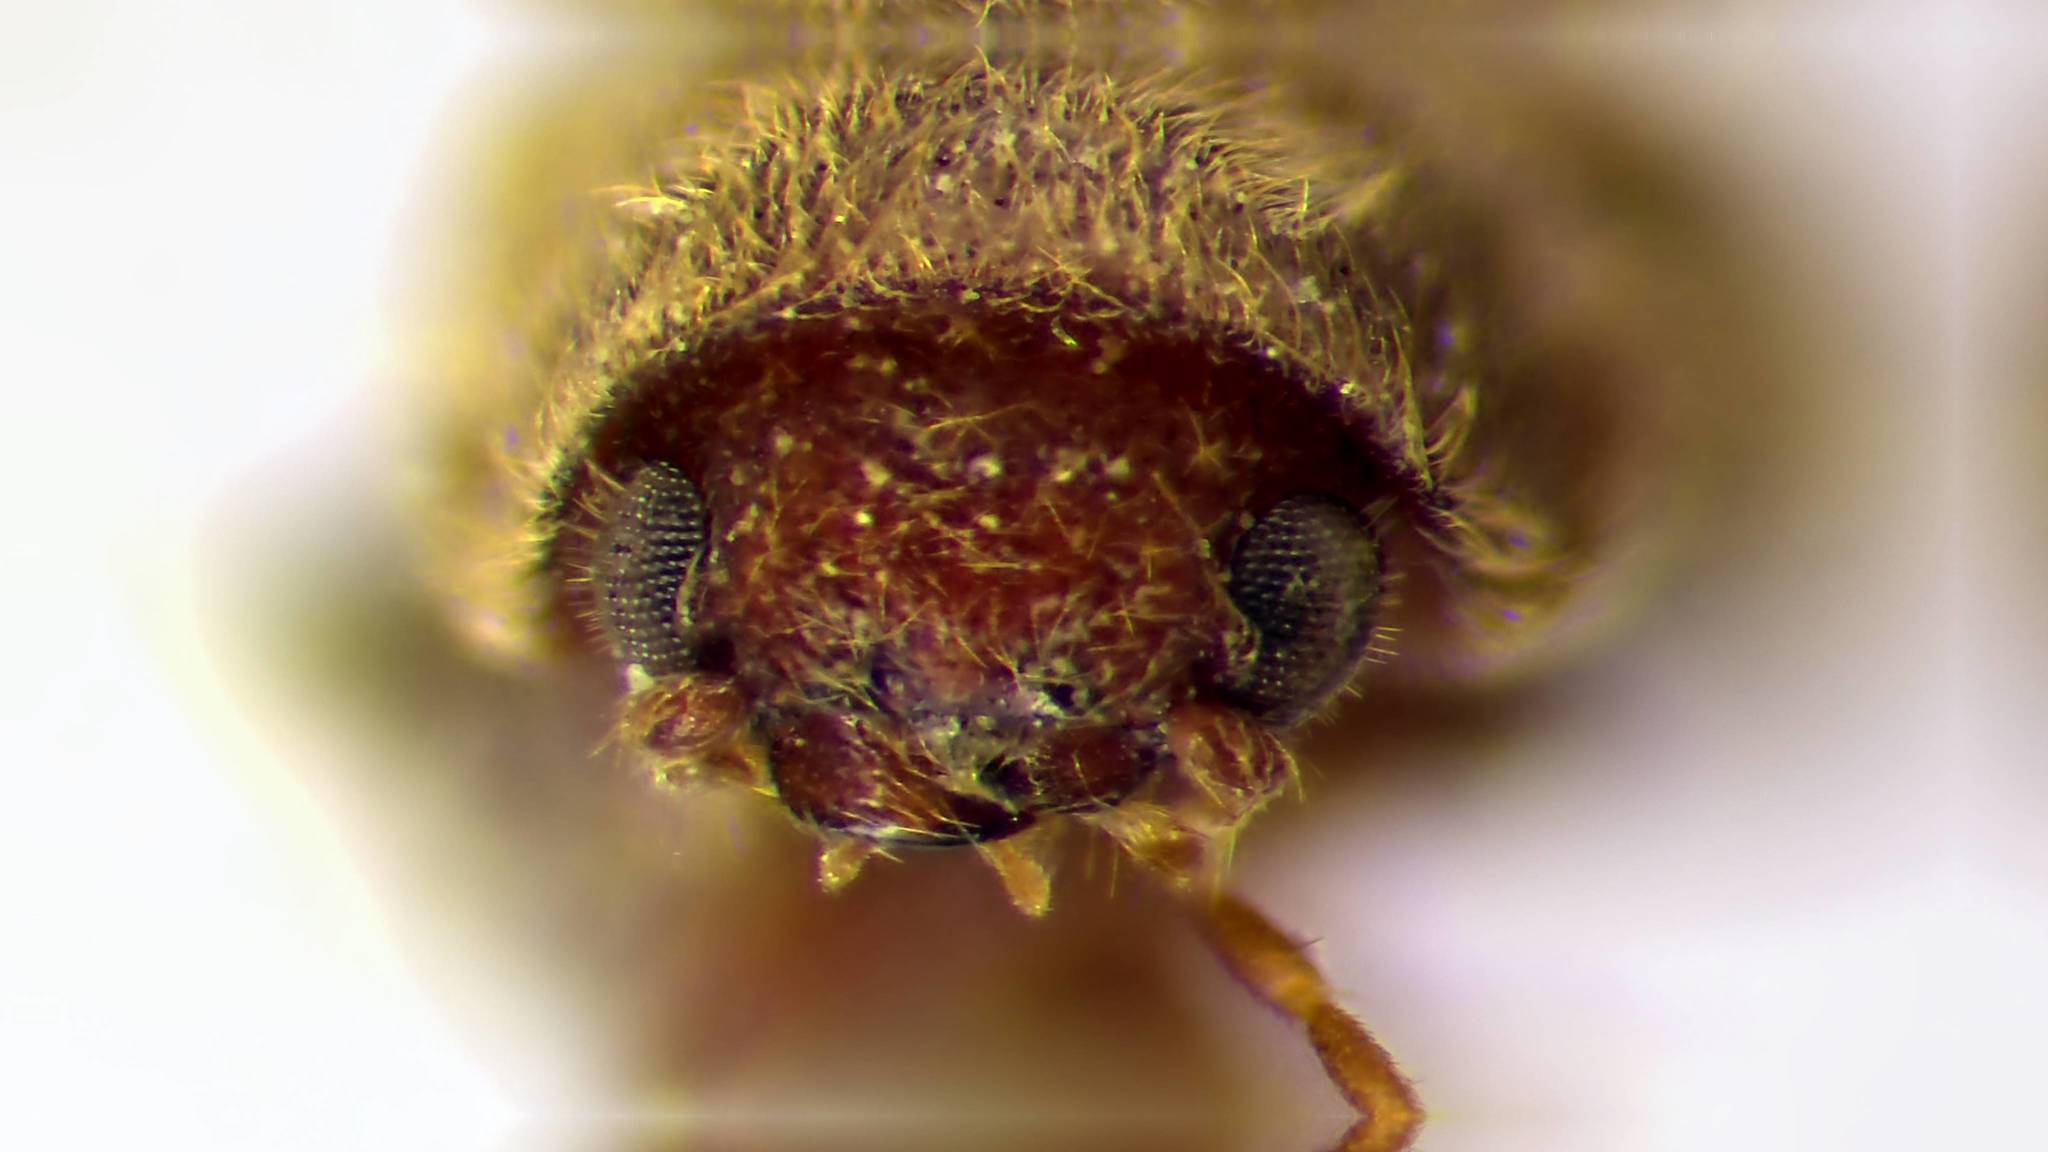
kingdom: Animalia
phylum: Arthropoda
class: Insecta
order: Coleoptera
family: Anobiidae
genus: Stegobium
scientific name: Stegobium paniceum
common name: Drugstore beetle
